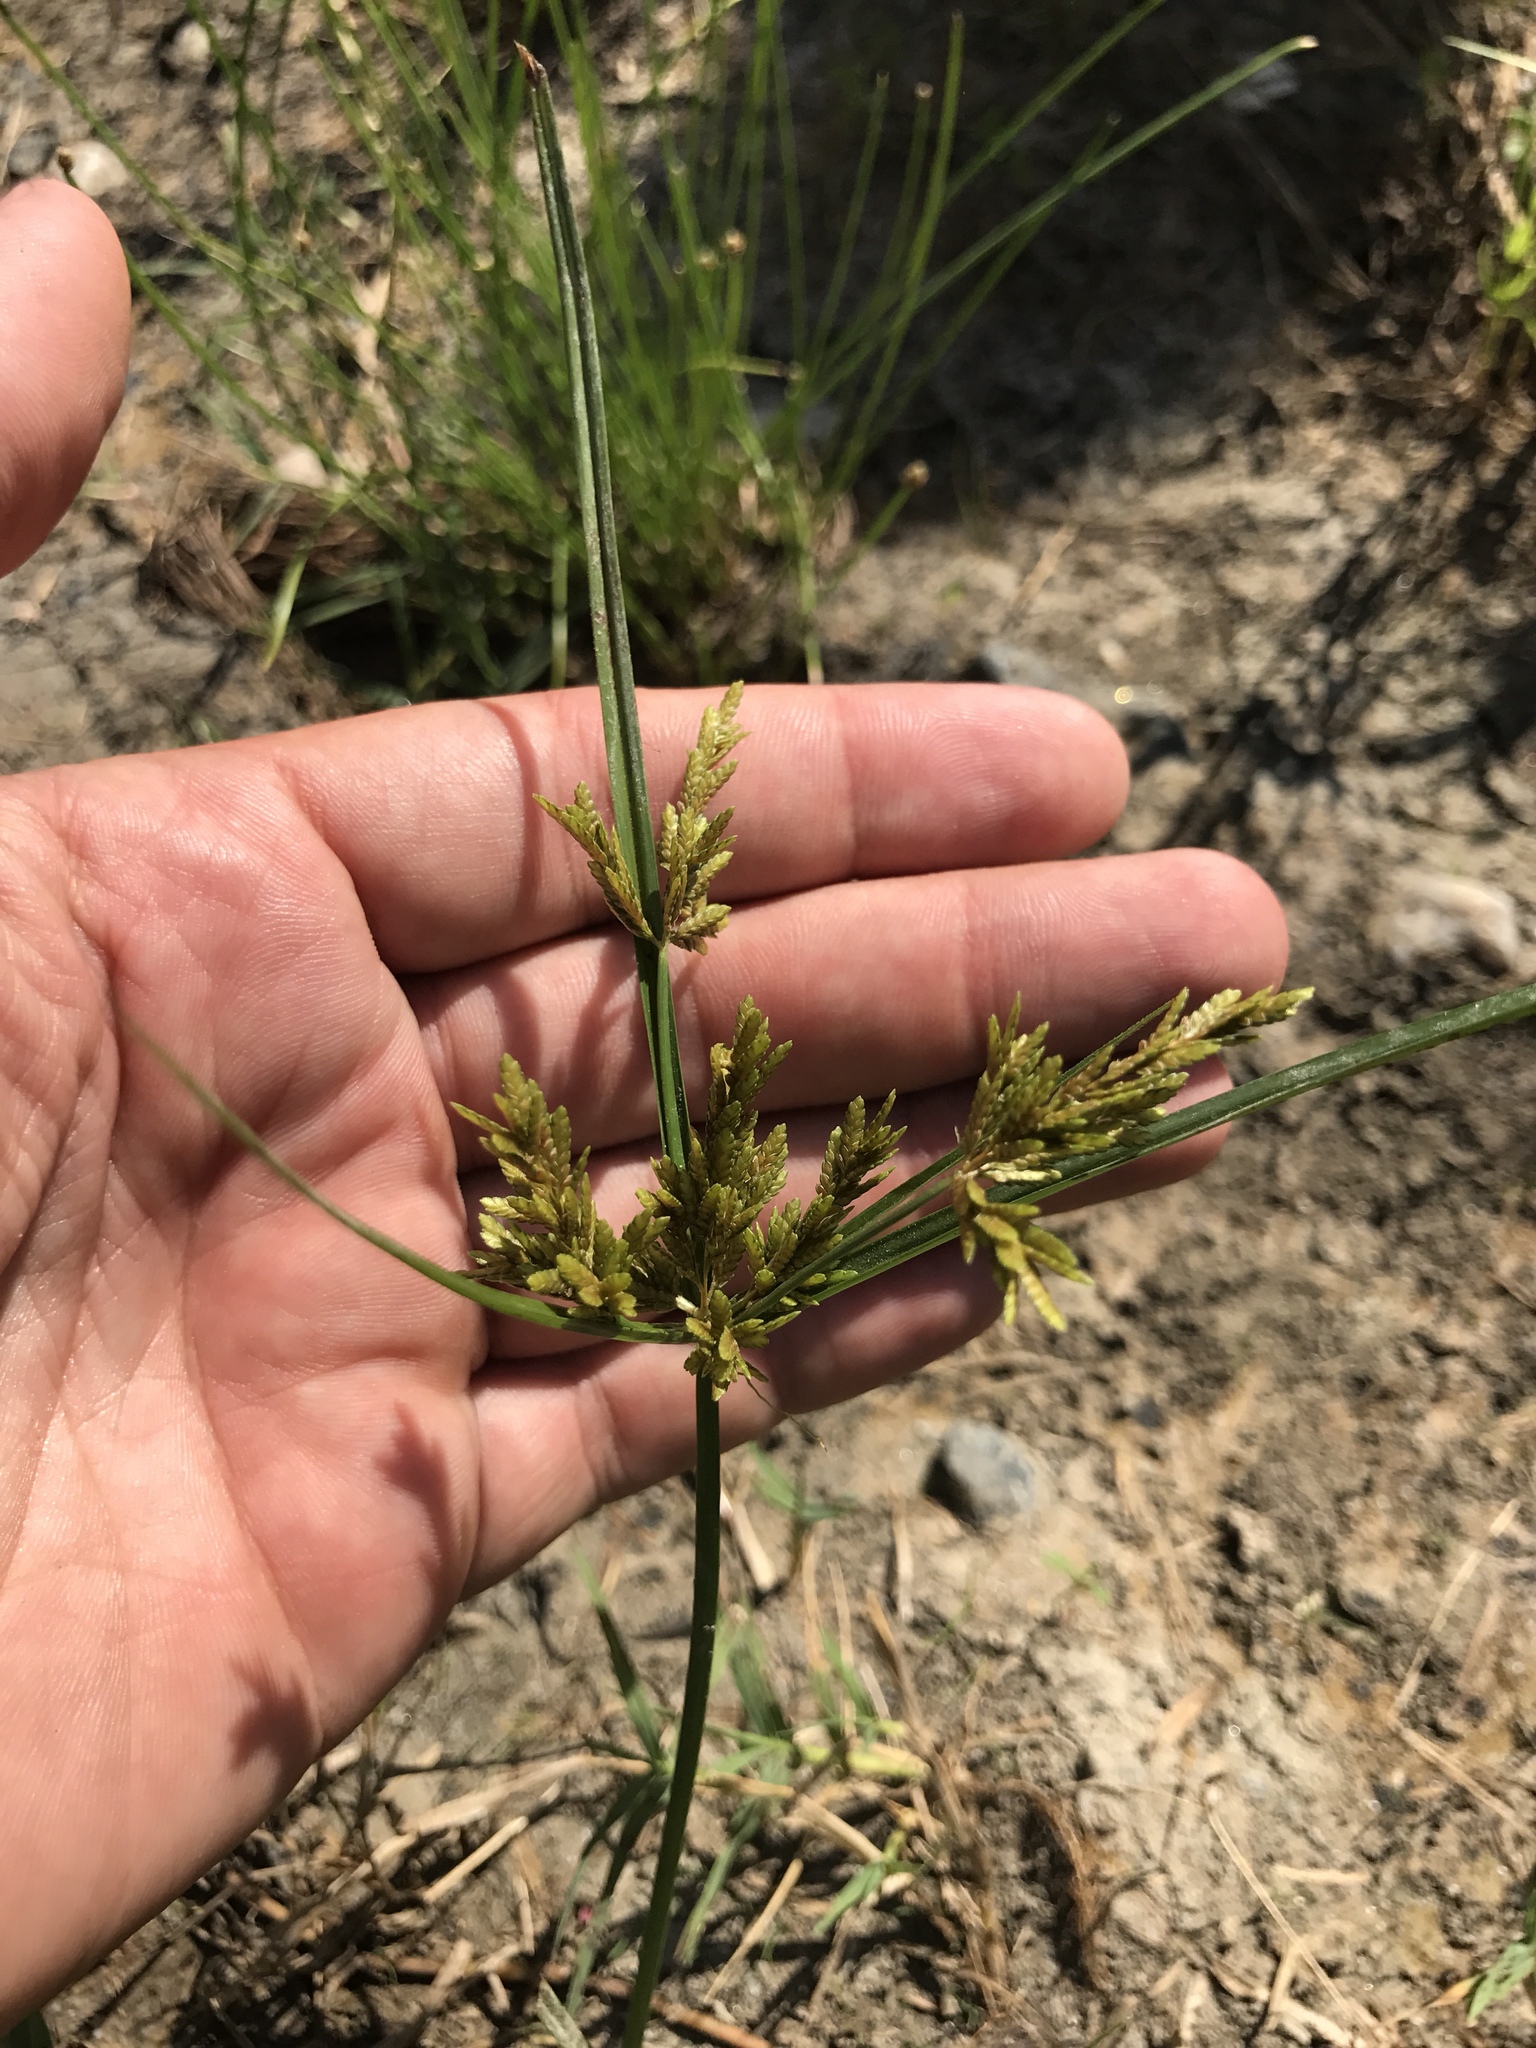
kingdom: Plantae
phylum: Tracheophyta
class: Liliopsida
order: Poales
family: Cyperaceae
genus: Cyperus
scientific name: Cyperus iria
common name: Ricefield flatsedge
